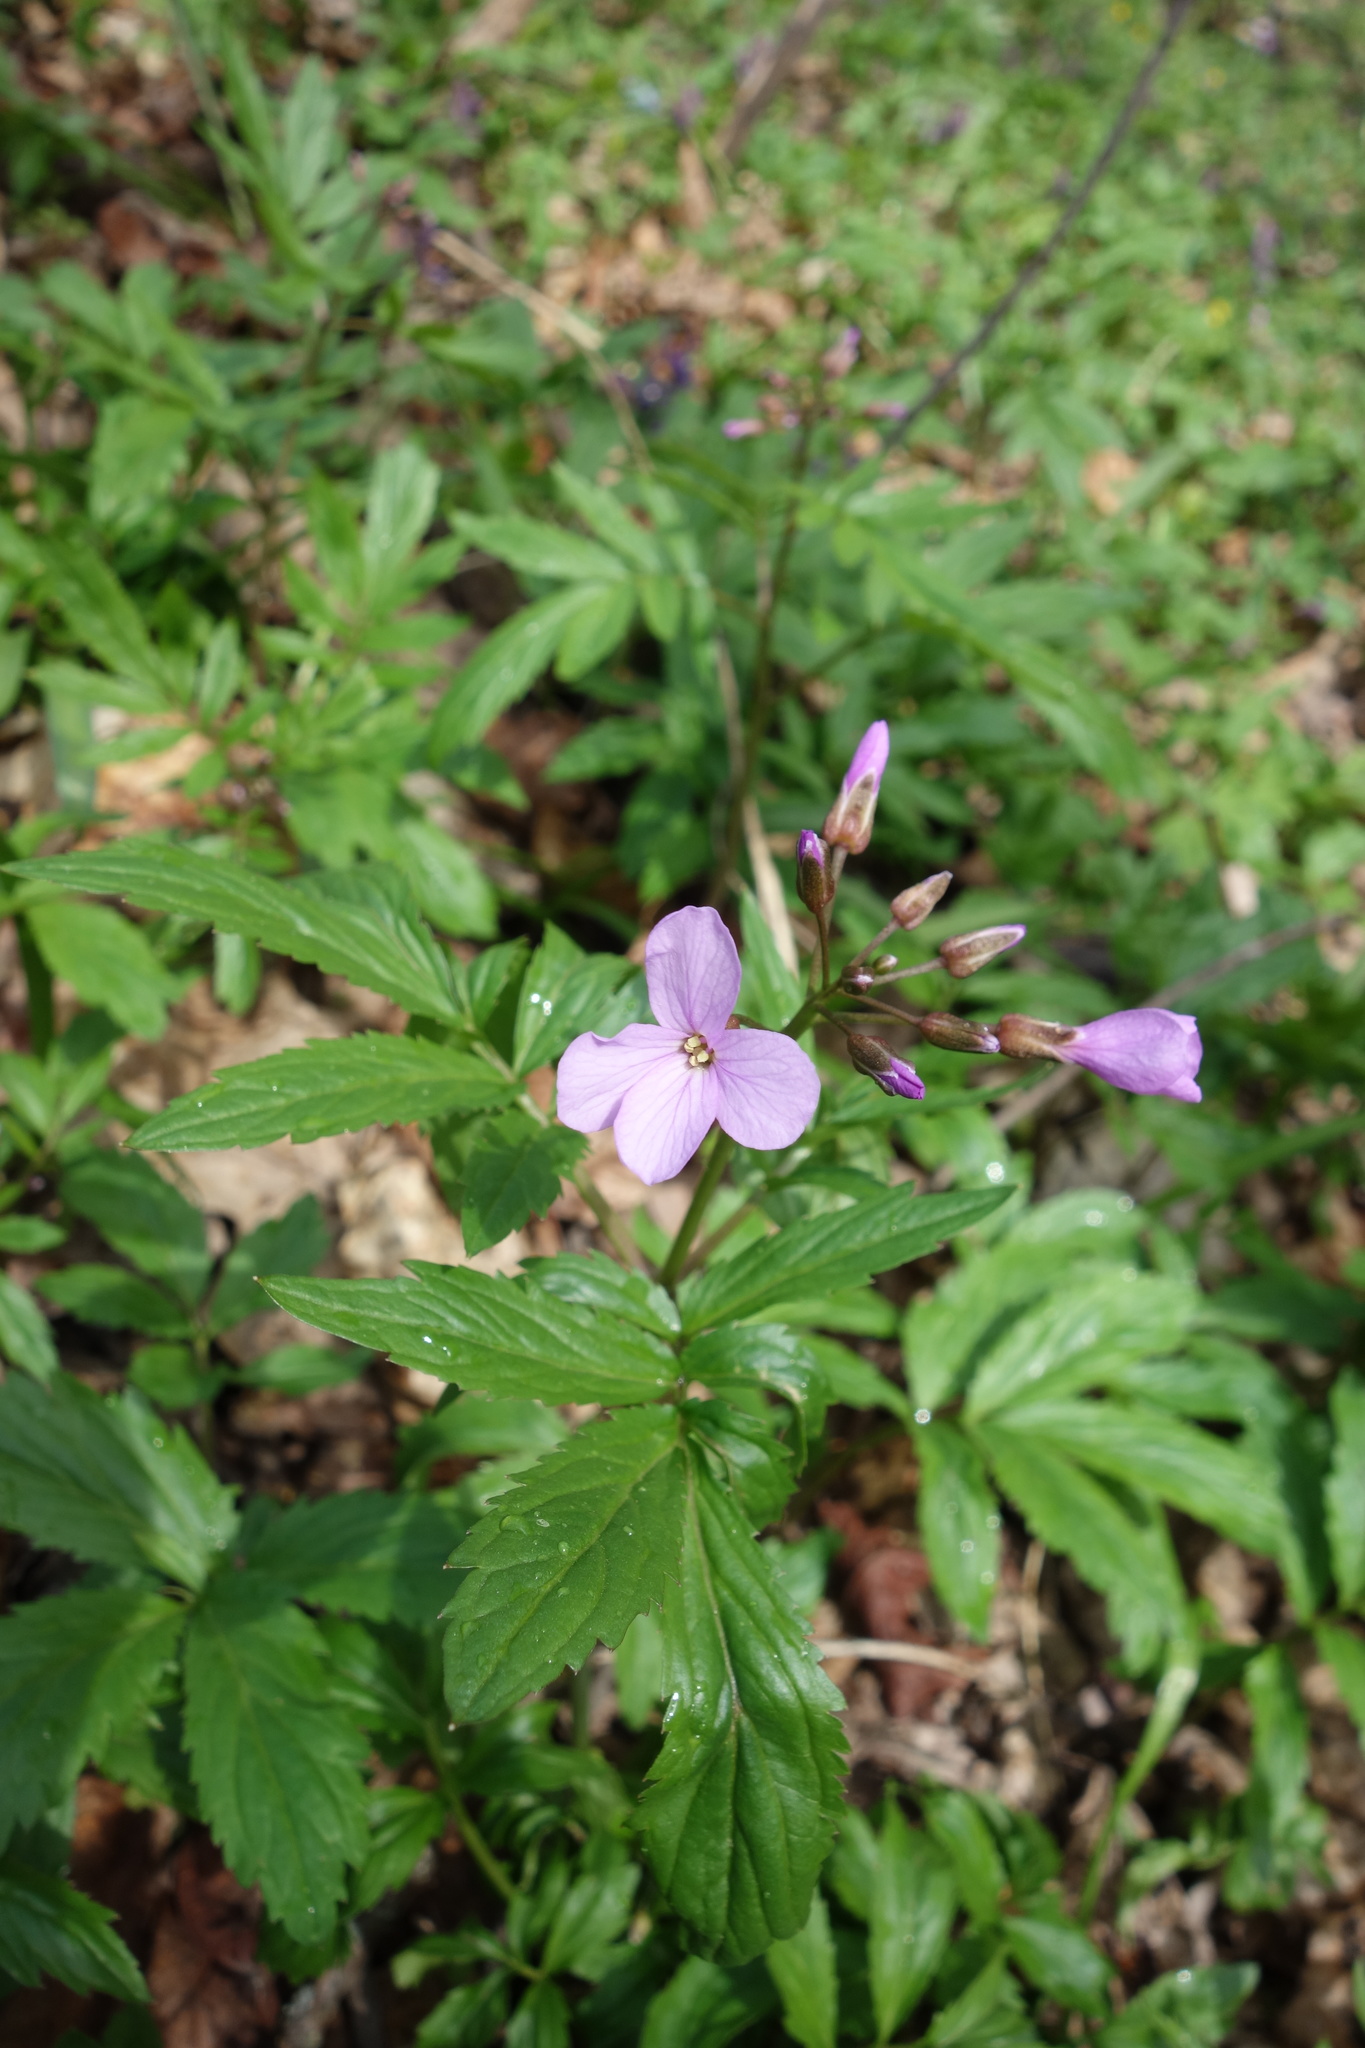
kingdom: Plantae
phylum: Tracheophyta
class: Magnoliopsida
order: Brassicales
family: Brassicaceae
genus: Cardamine
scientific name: Cardamine quinquefolia
